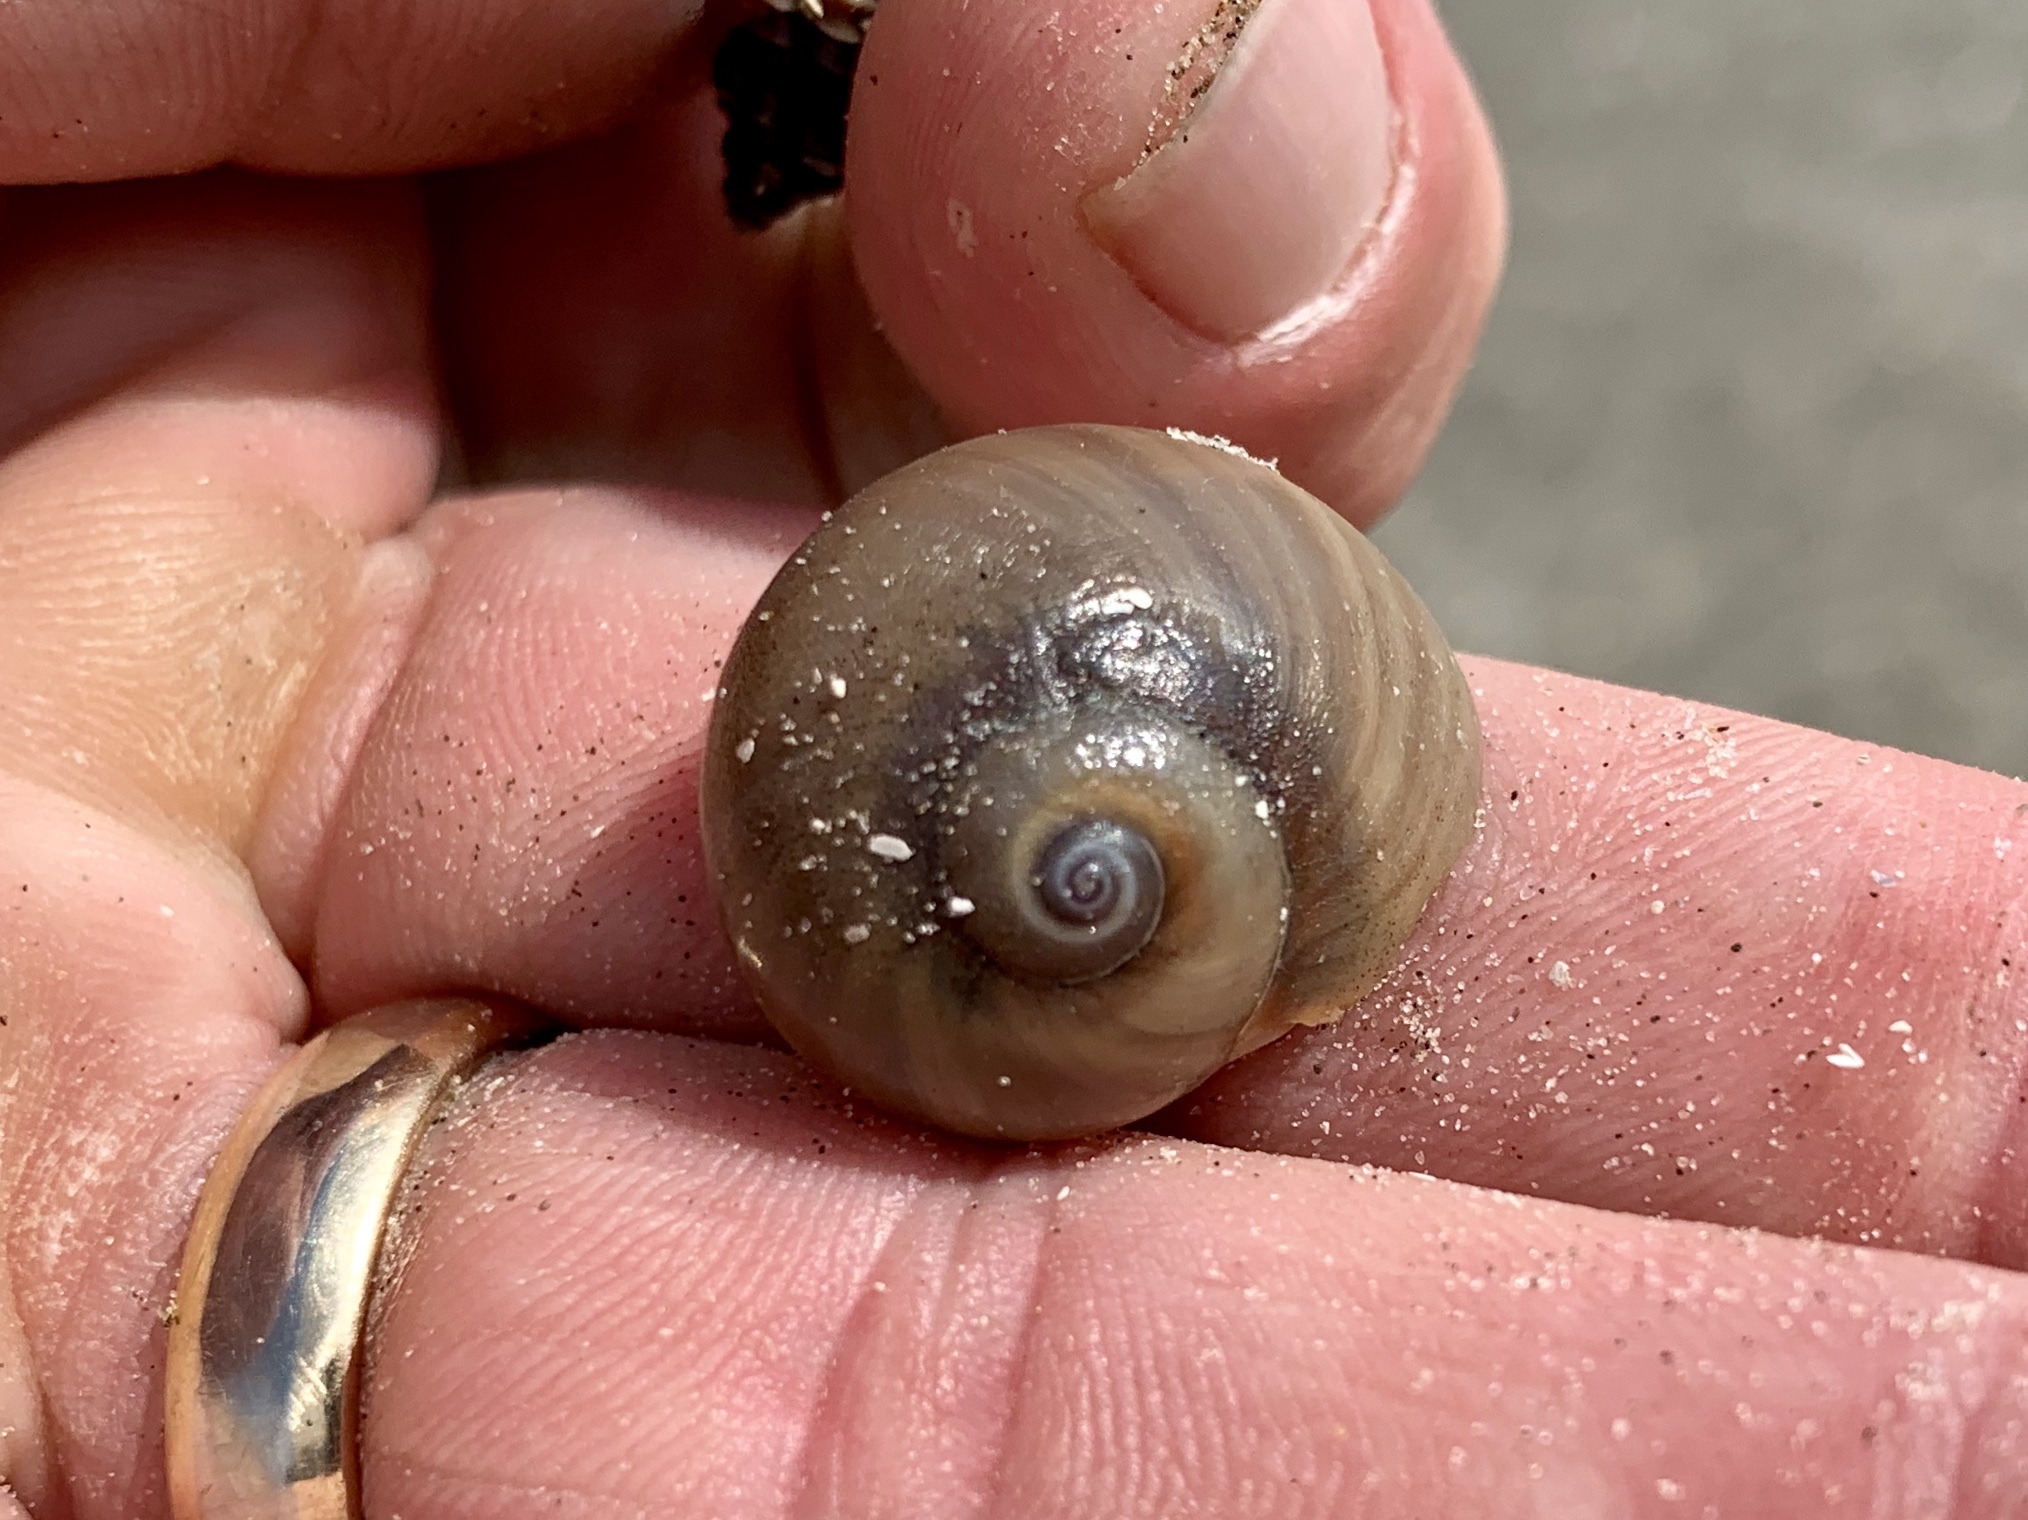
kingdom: Animalia
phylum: Mollusca
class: Gastropoda
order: Littorinimorpha
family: Naticidae
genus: Neverita
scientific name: Neverita duplicata
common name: Lobed moonsnail
